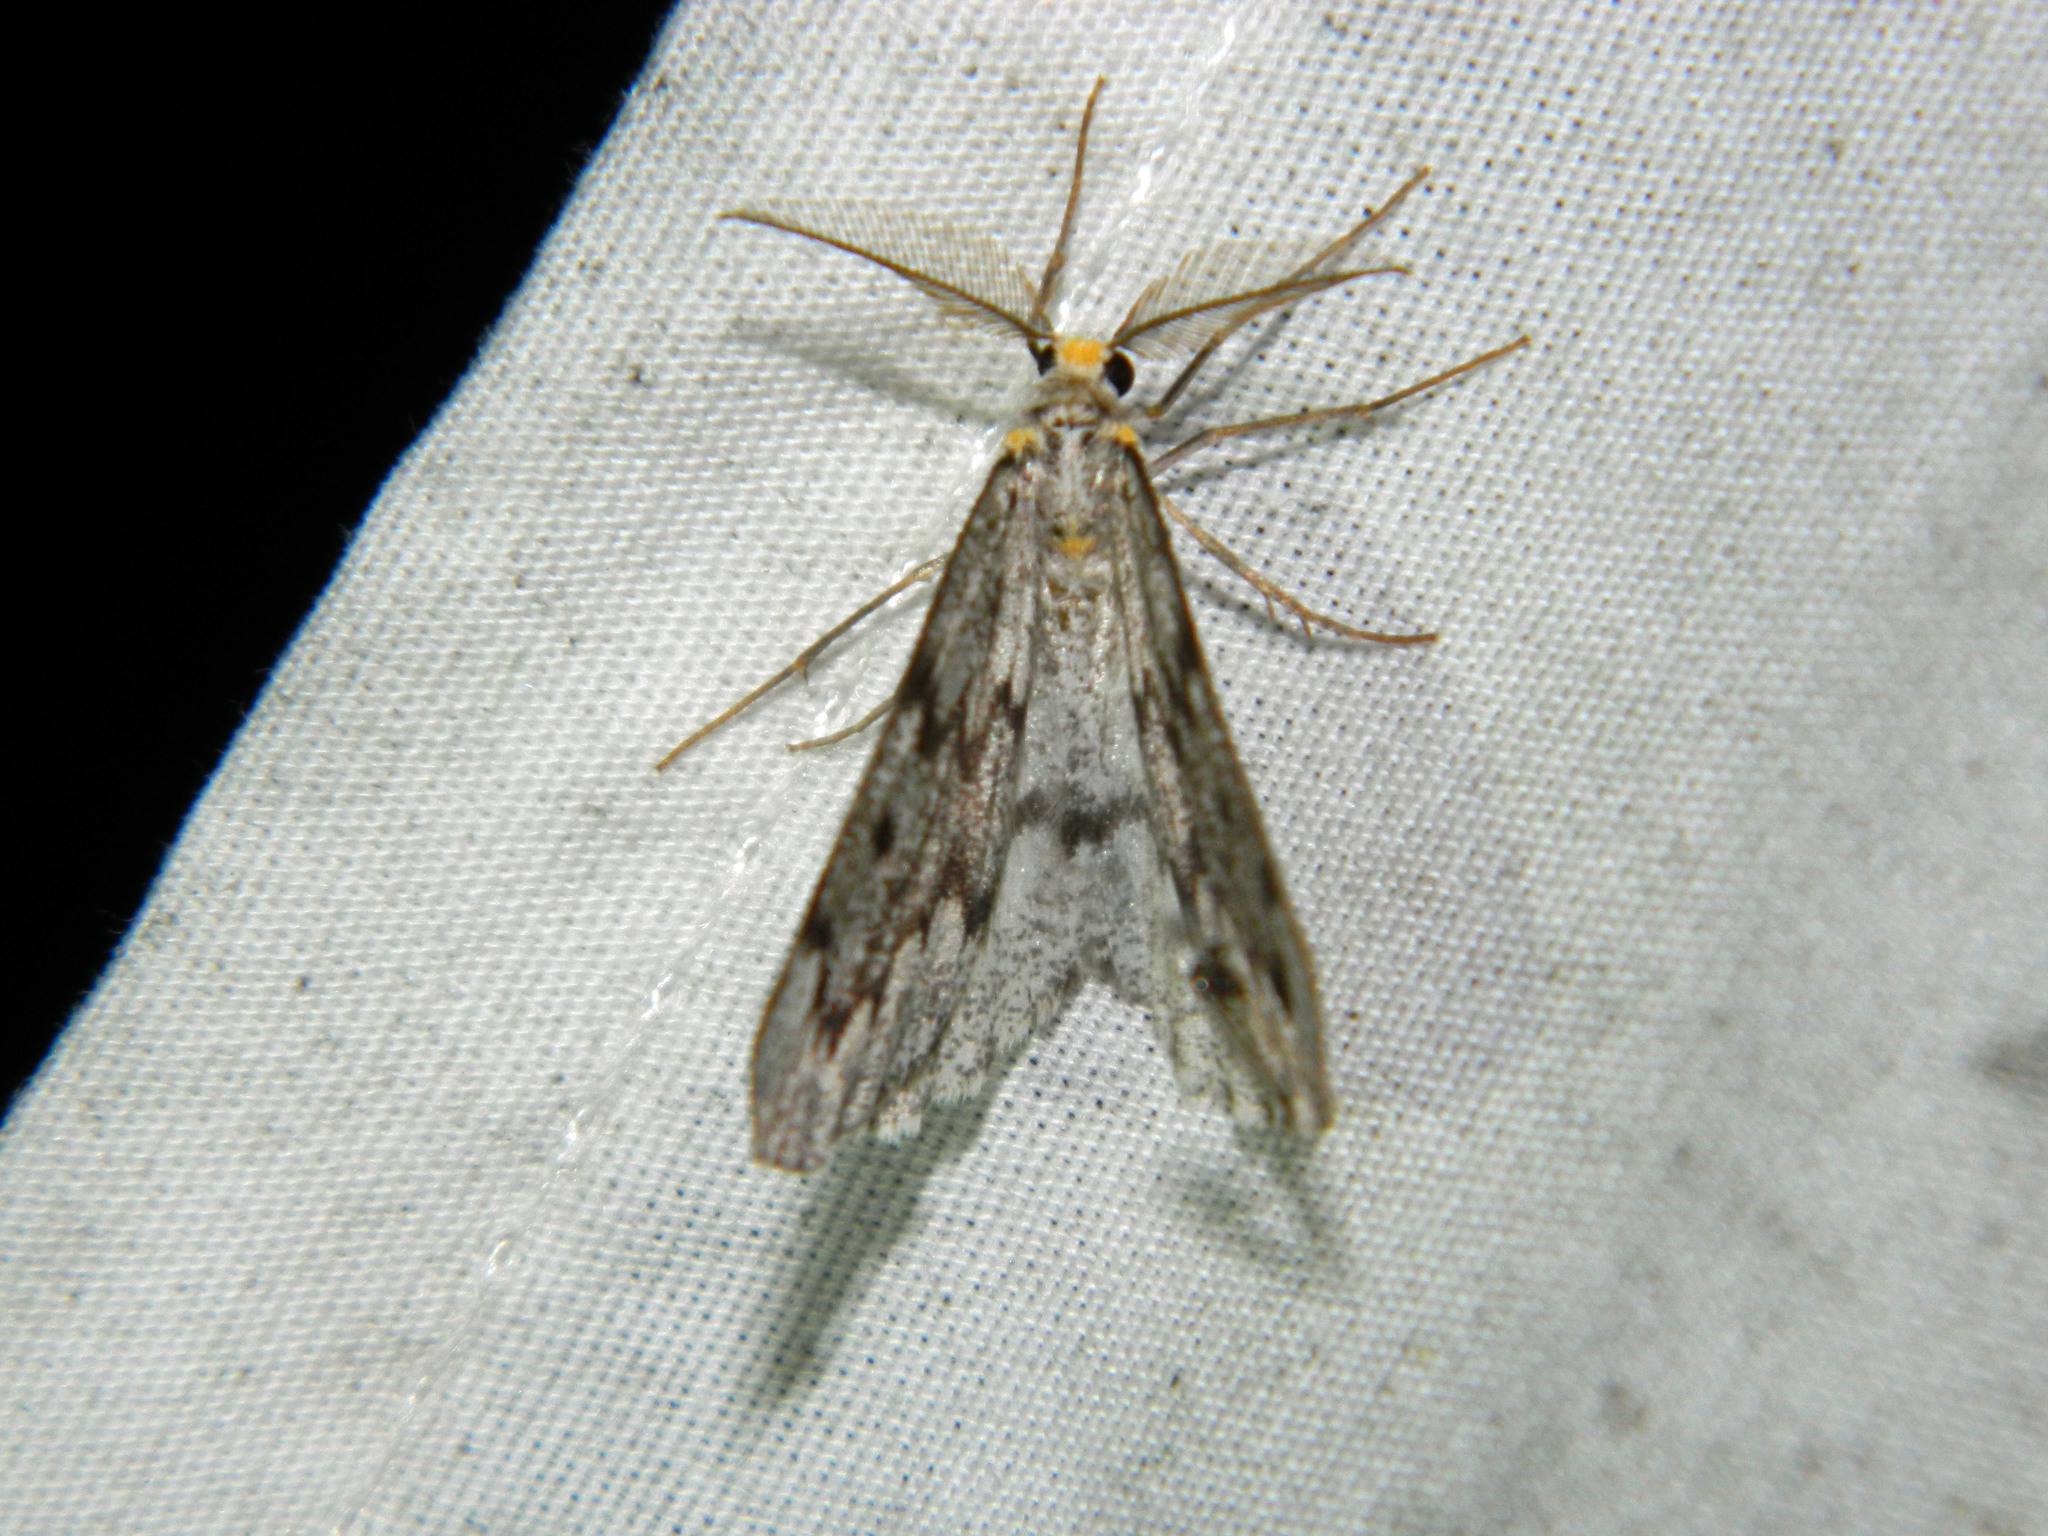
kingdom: Animalia
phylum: Arthropoda
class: Insecta
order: Lepidoptera
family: Geometridae
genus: Nepytia
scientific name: Nepytia canosaria
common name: False hemlock looper
